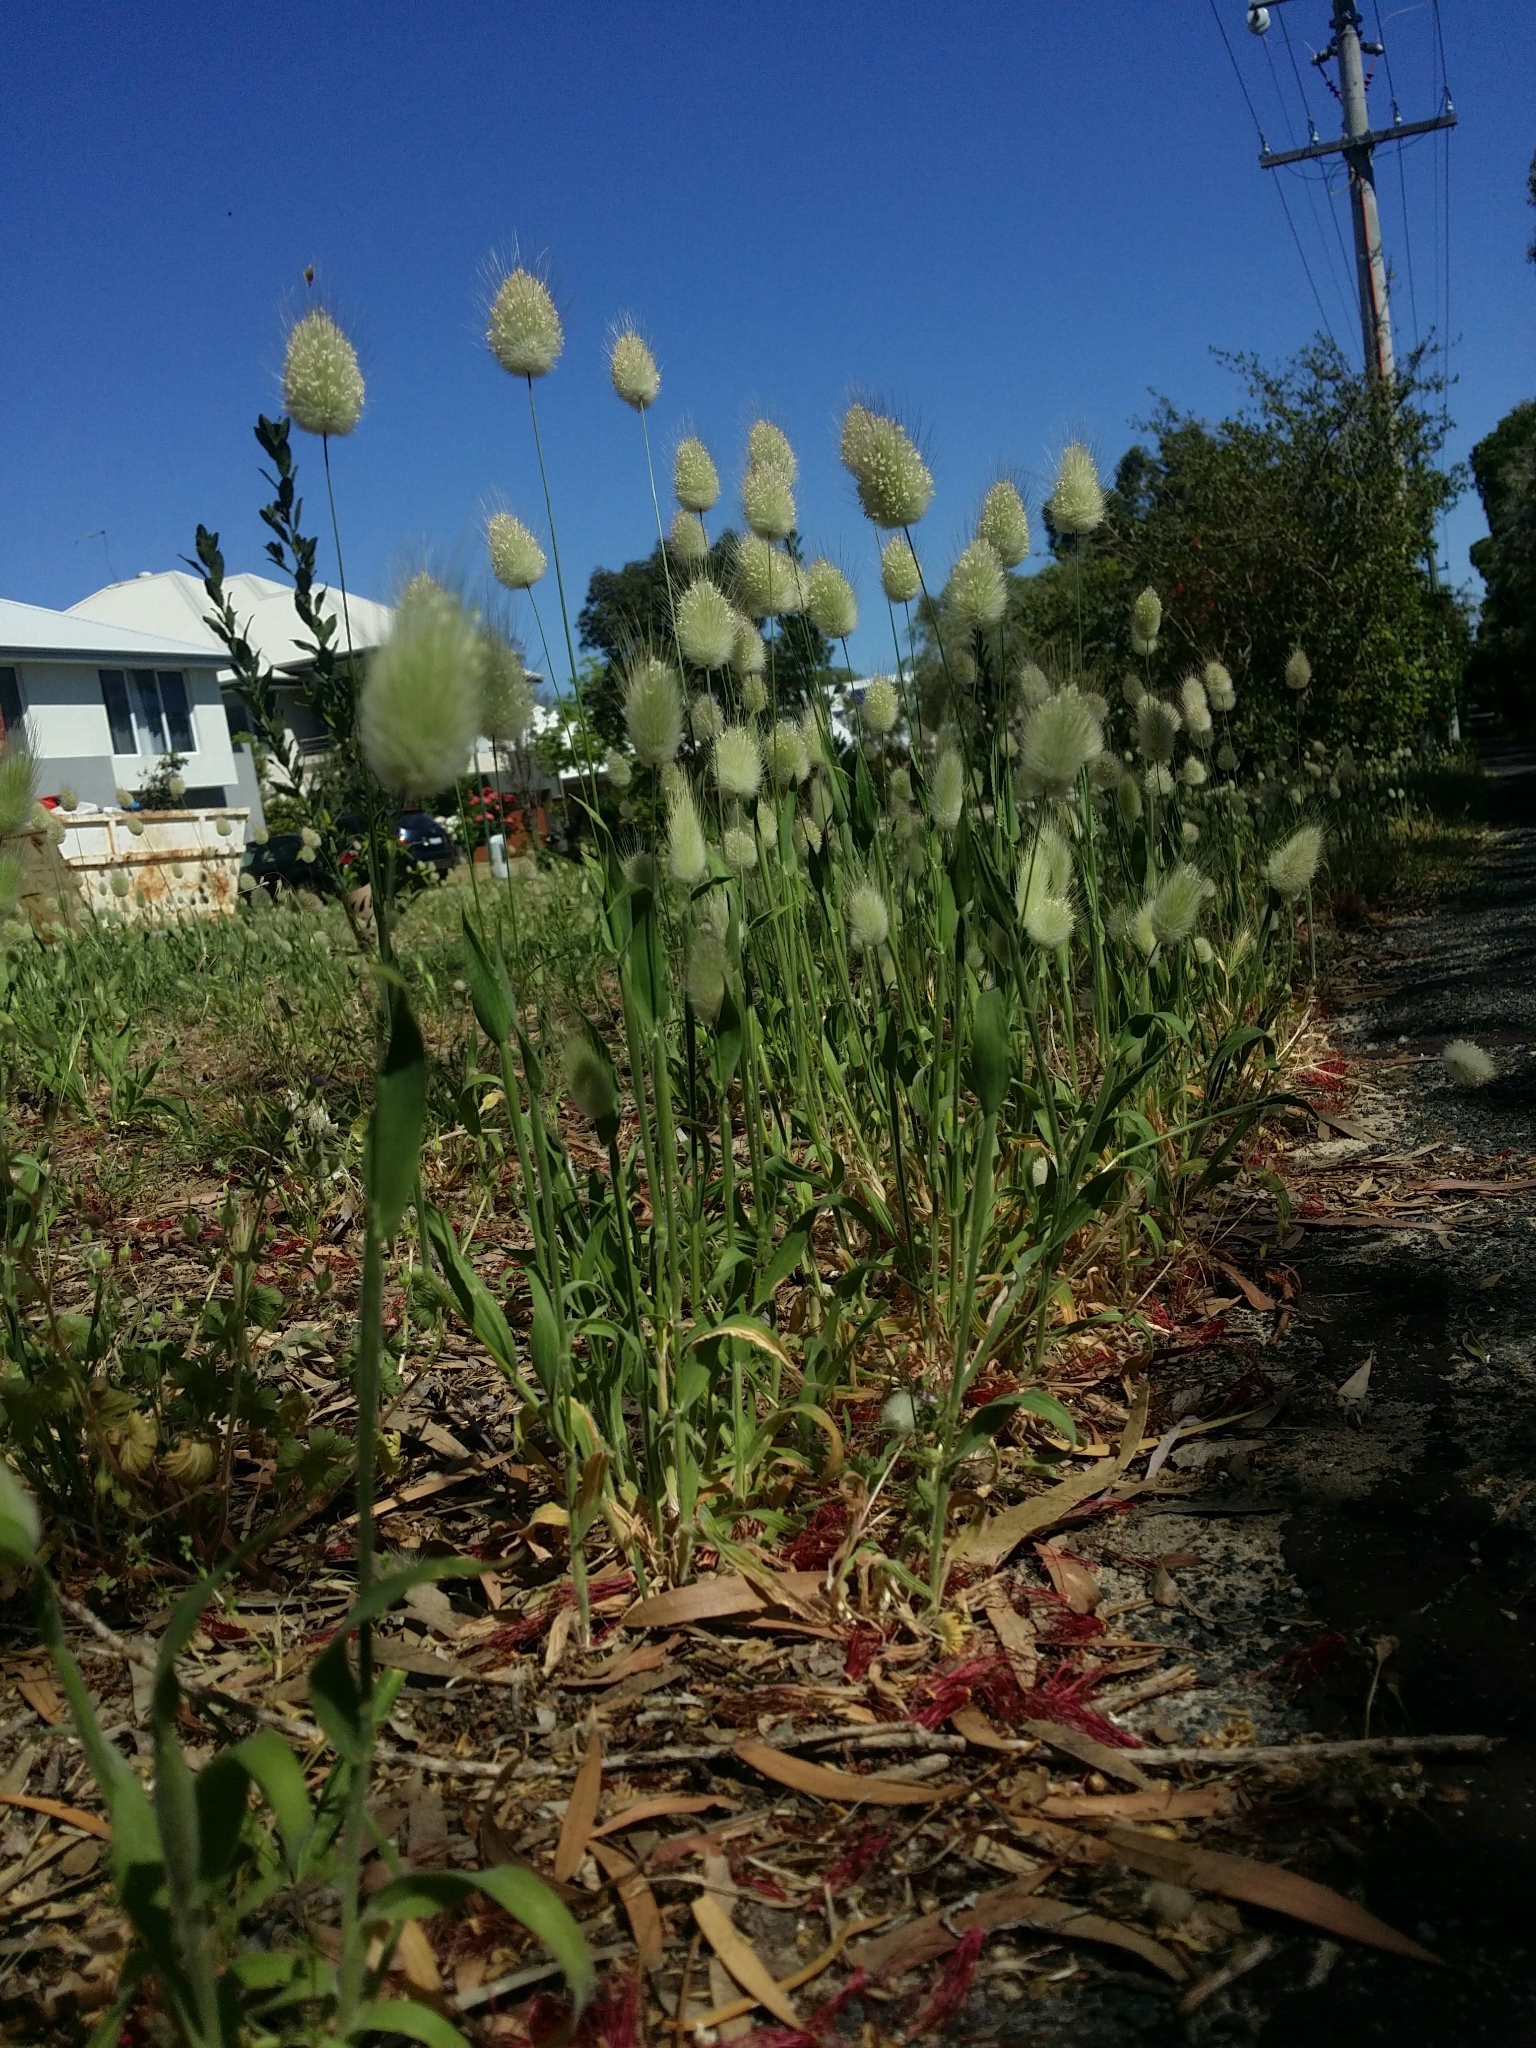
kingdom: Plantae
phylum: Tracheophyta
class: Liliopsida
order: Poales
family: Poaceae
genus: Lagurus
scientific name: Lagurus ovatus
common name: Hare's-tail
